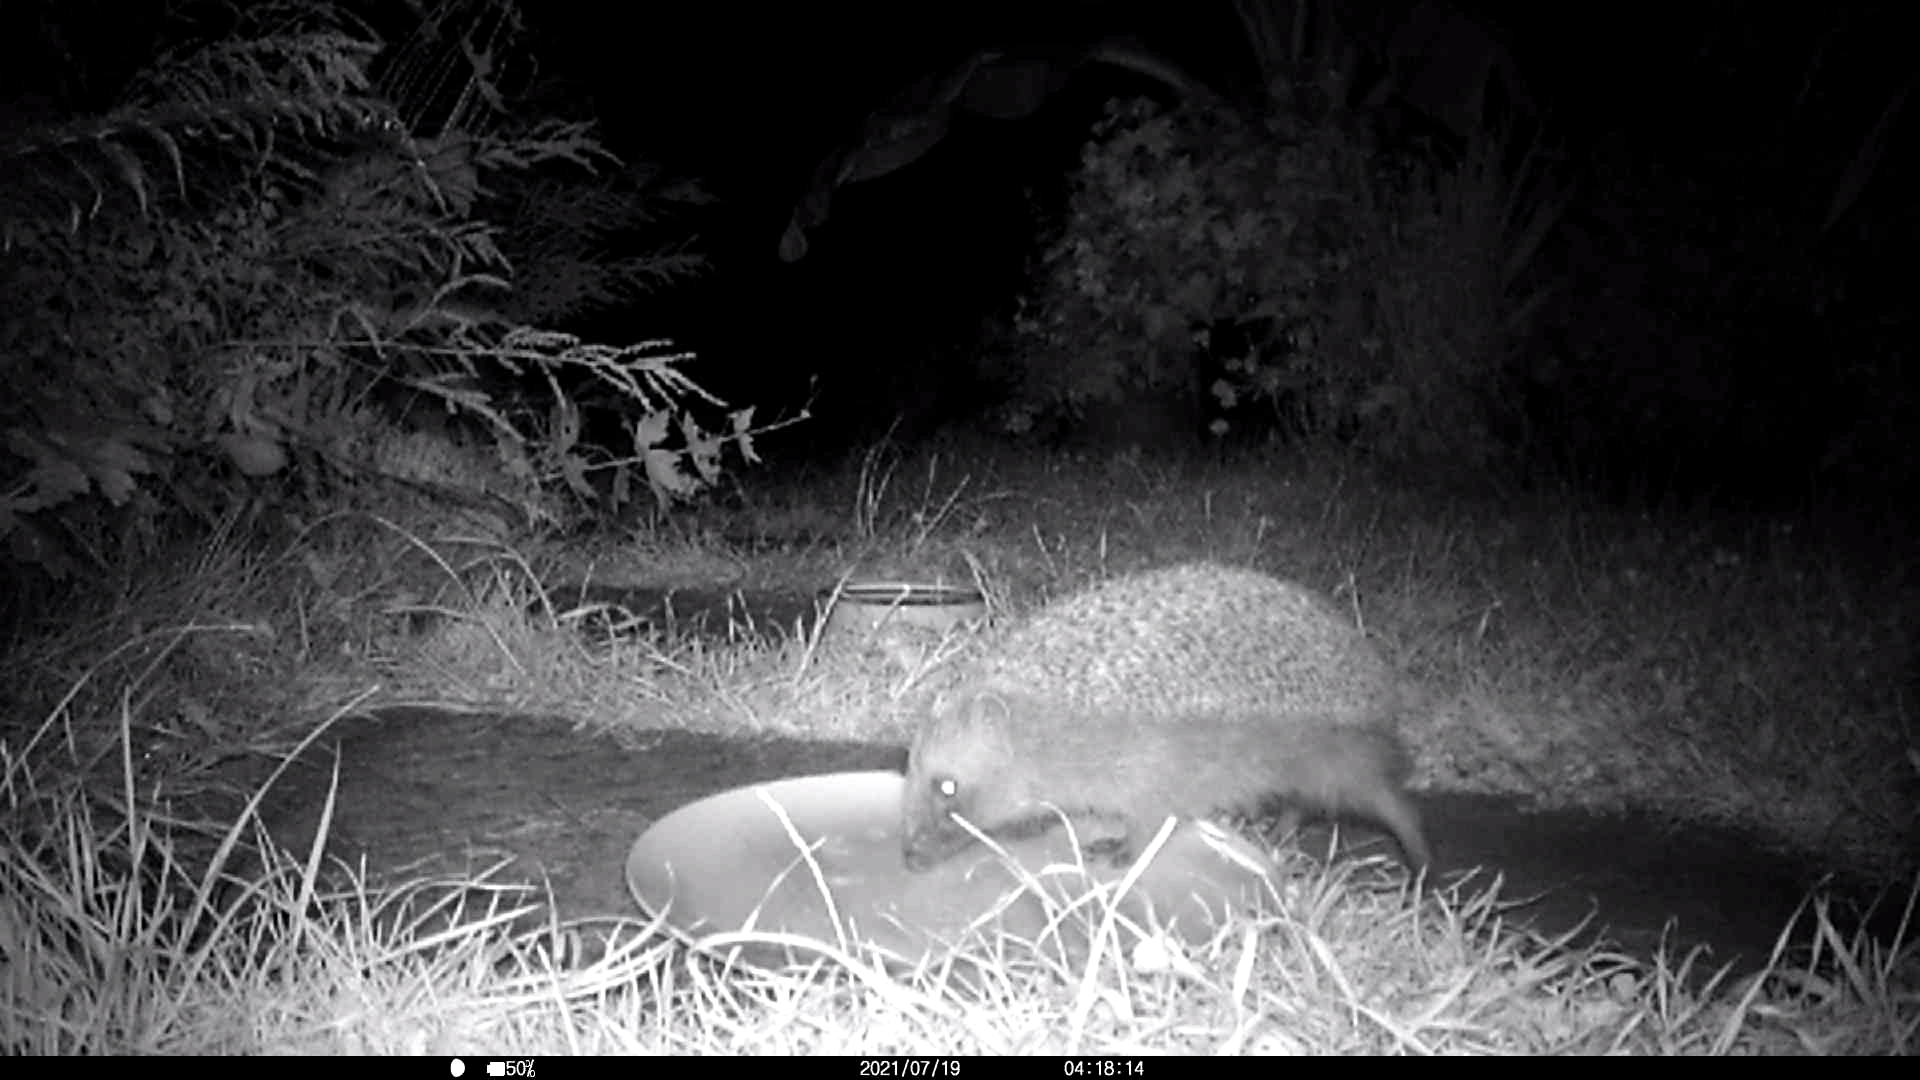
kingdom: Animalia
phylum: Chordata
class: Mammalia
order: Erinaceomorpha
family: Erinaceidae
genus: Erinaceus
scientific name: Erinaceus europaeus
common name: West european hedgehog
